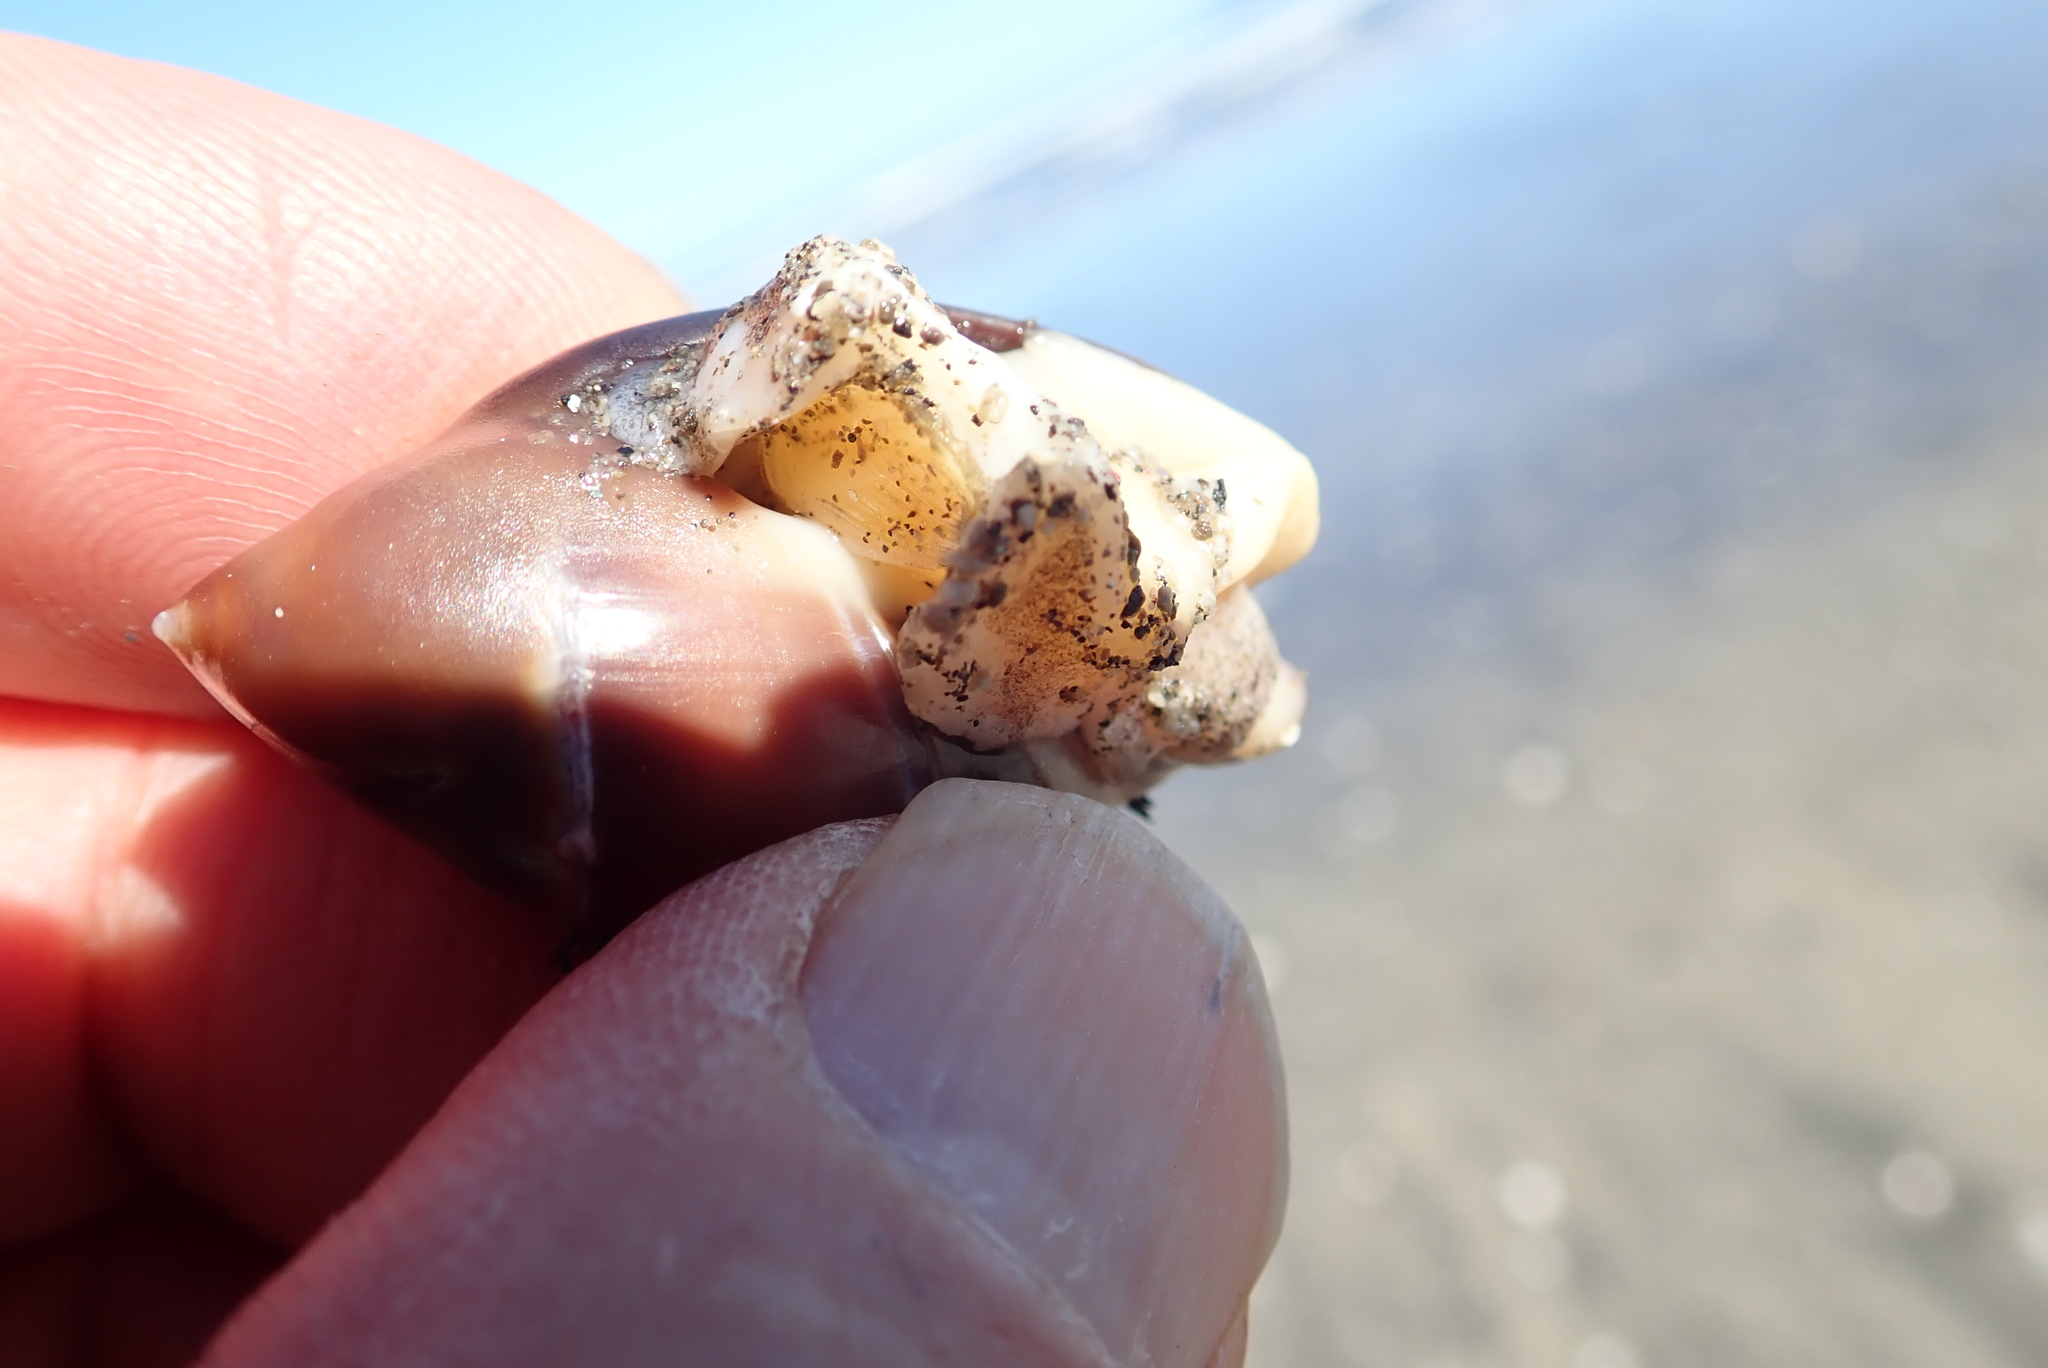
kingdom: Animalia
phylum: Mollusca
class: Gastropoda
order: Neogastropoda
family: Ancillariidae
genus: Amalda
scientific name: Amalda australis
